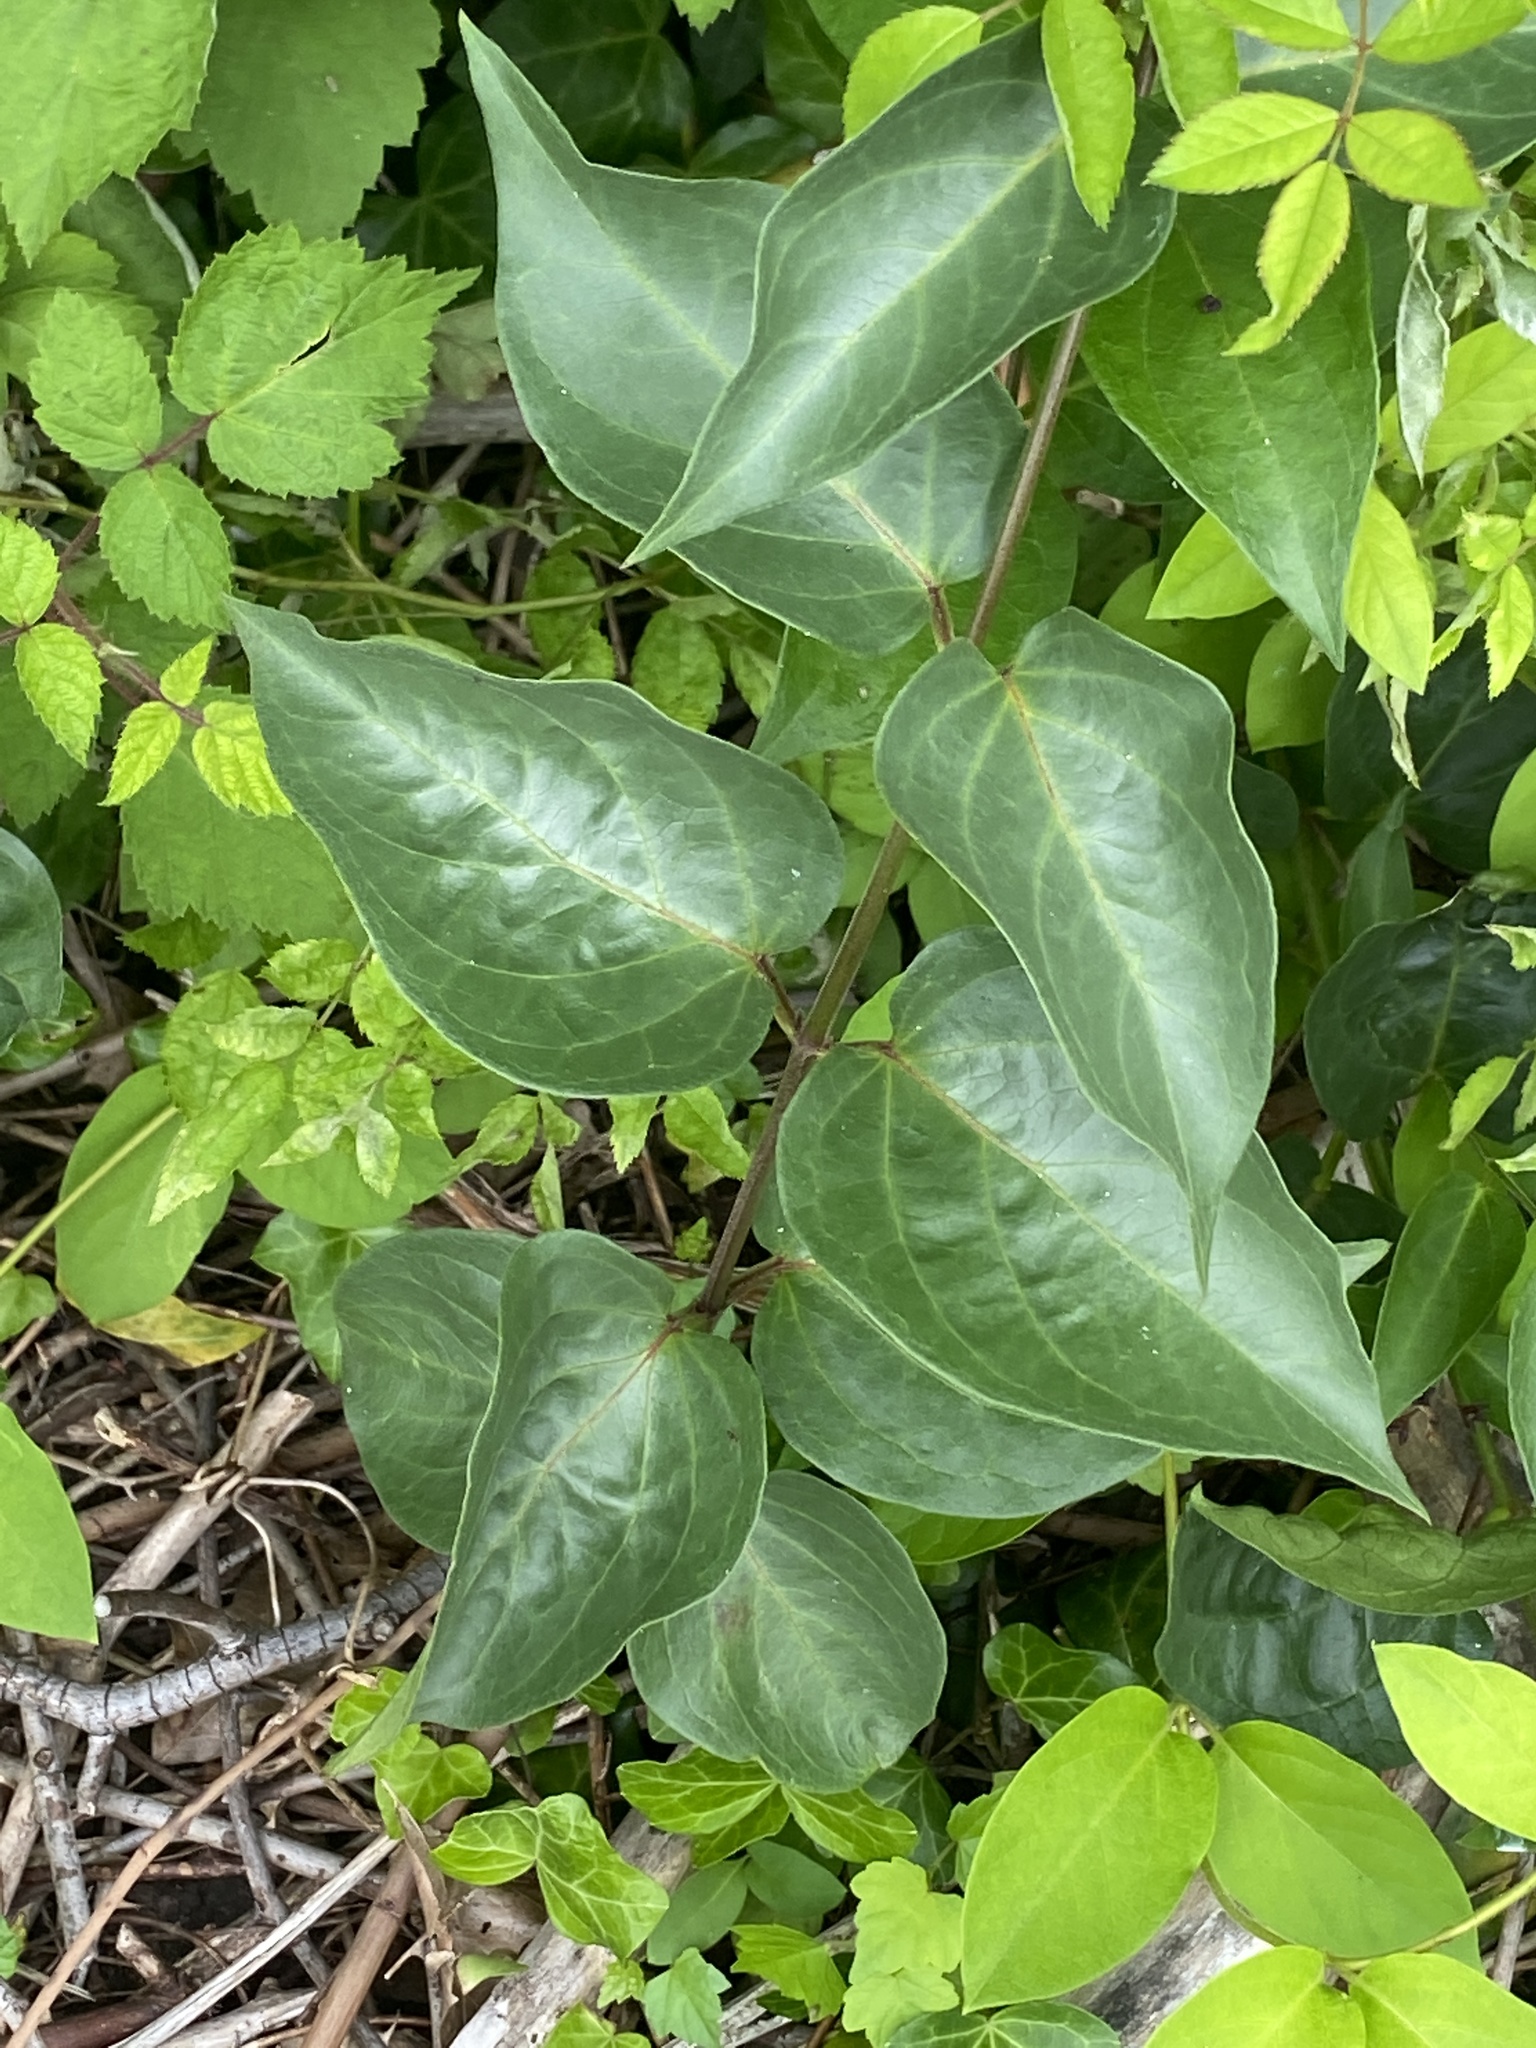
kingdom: Plantae
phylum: Tracheophyta
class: Magnoliopsida
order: Gentianales
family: Apocynaceae
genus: Vincetoxicum
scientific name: Vincetoxicum nigrum
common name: Black swallow-wort
